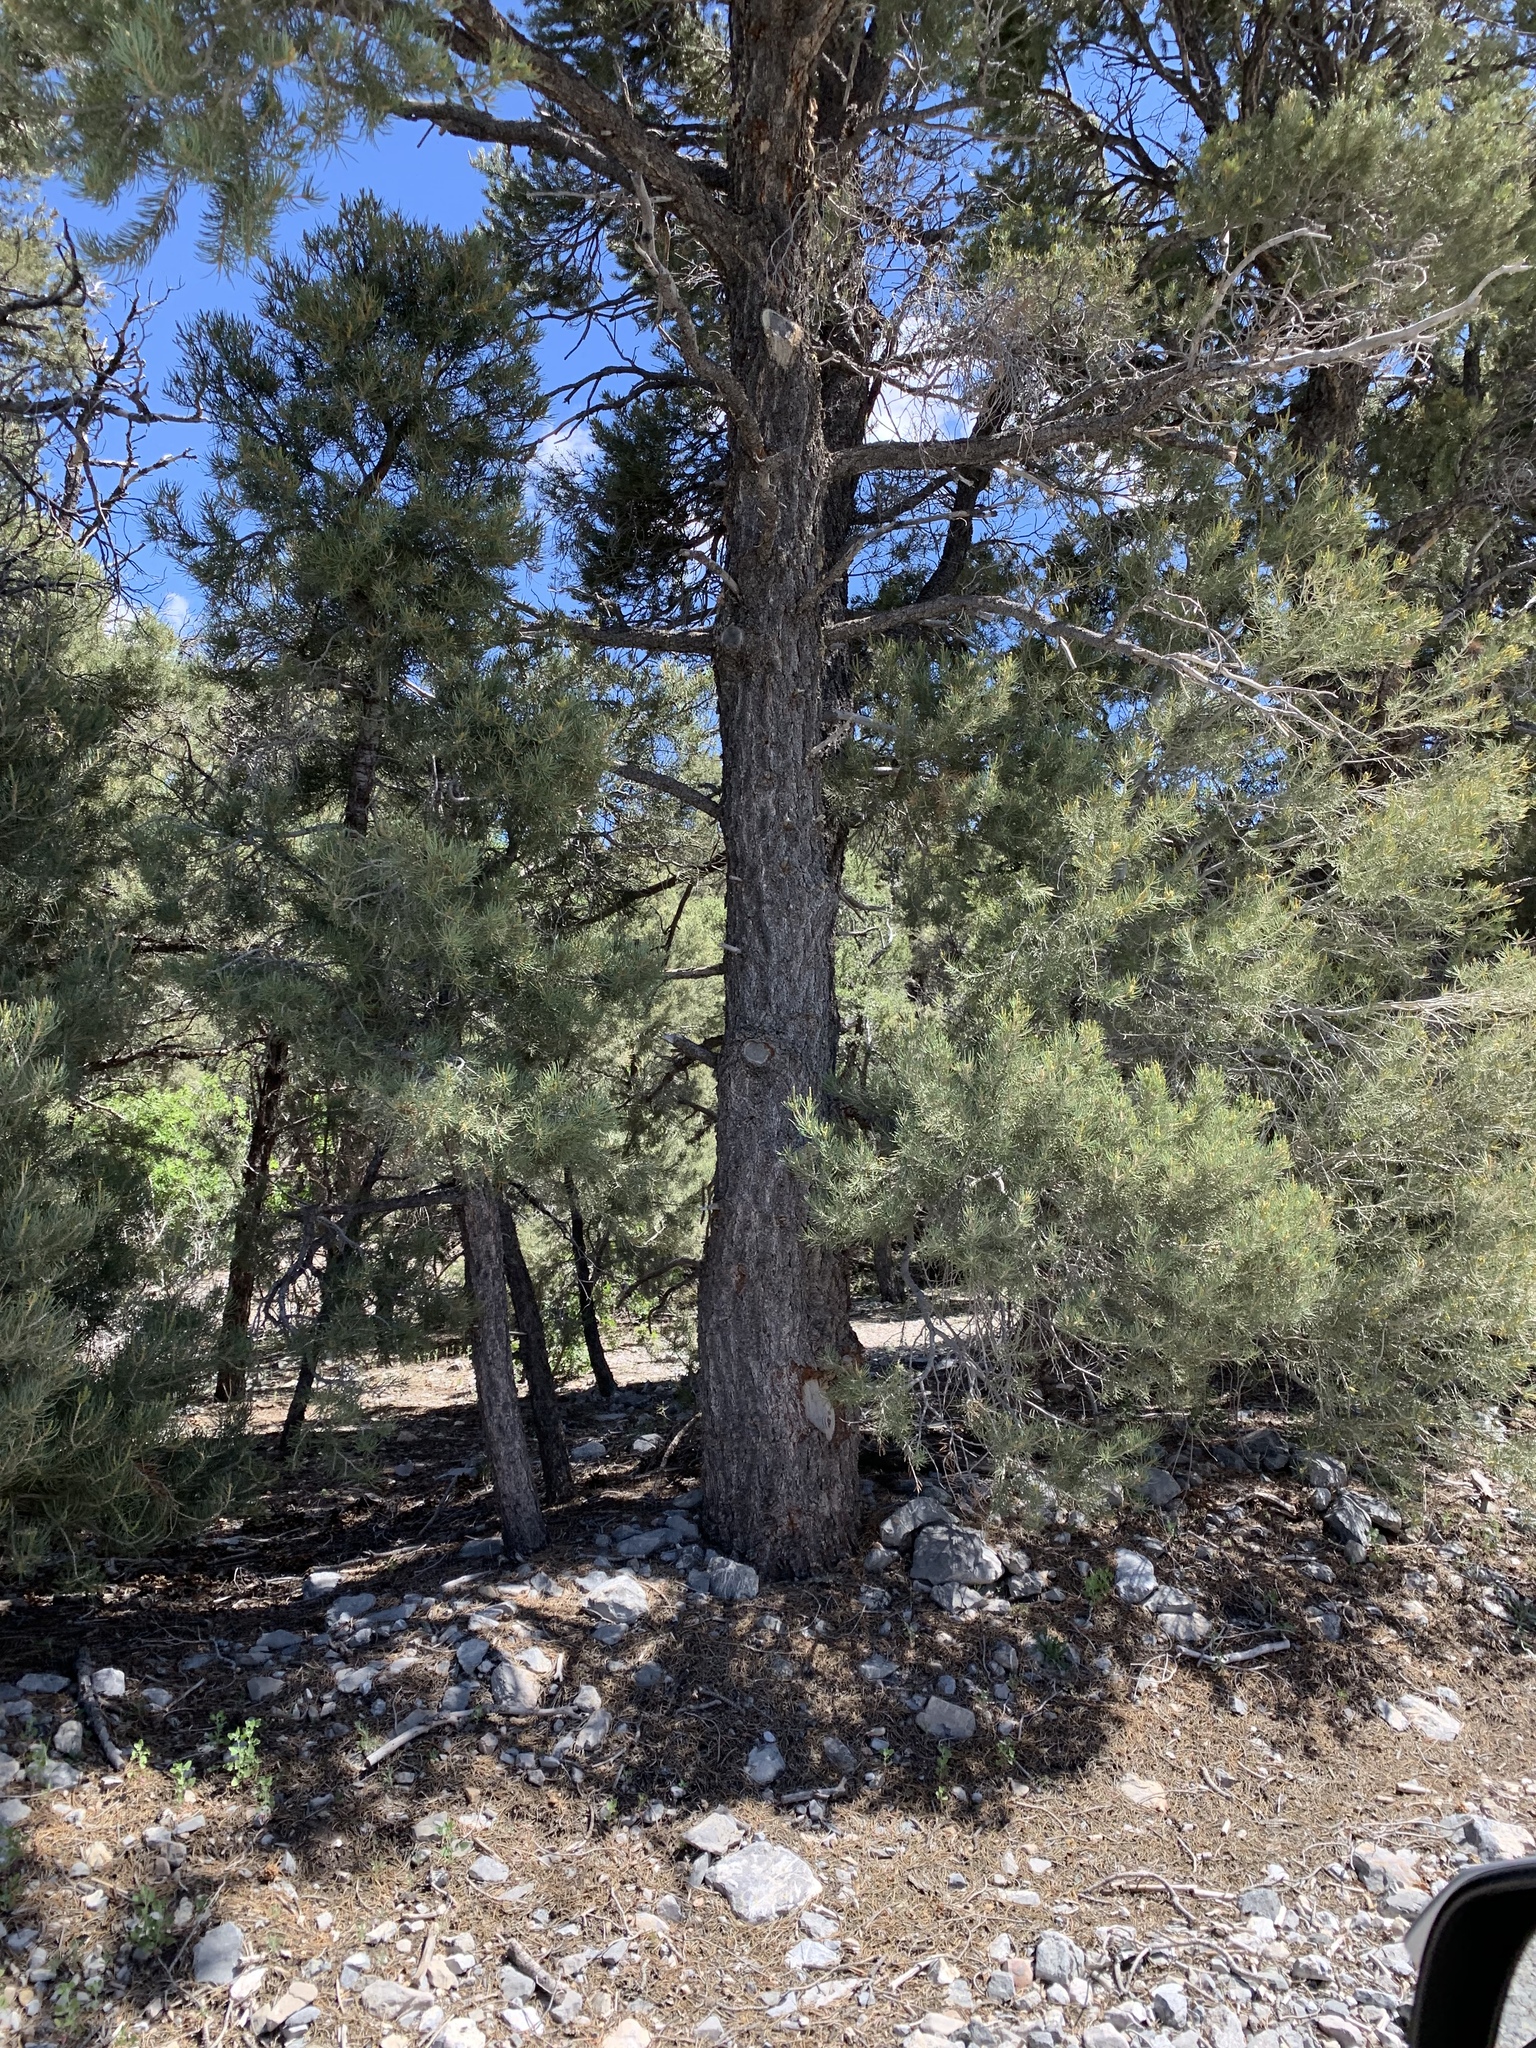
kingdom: Plantae
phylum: Tracheophyta
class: Pinopsida
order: Pinales
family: Pinaceae
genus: Pinus
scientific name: Pinus monophylla
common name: One-leaved nut pine
